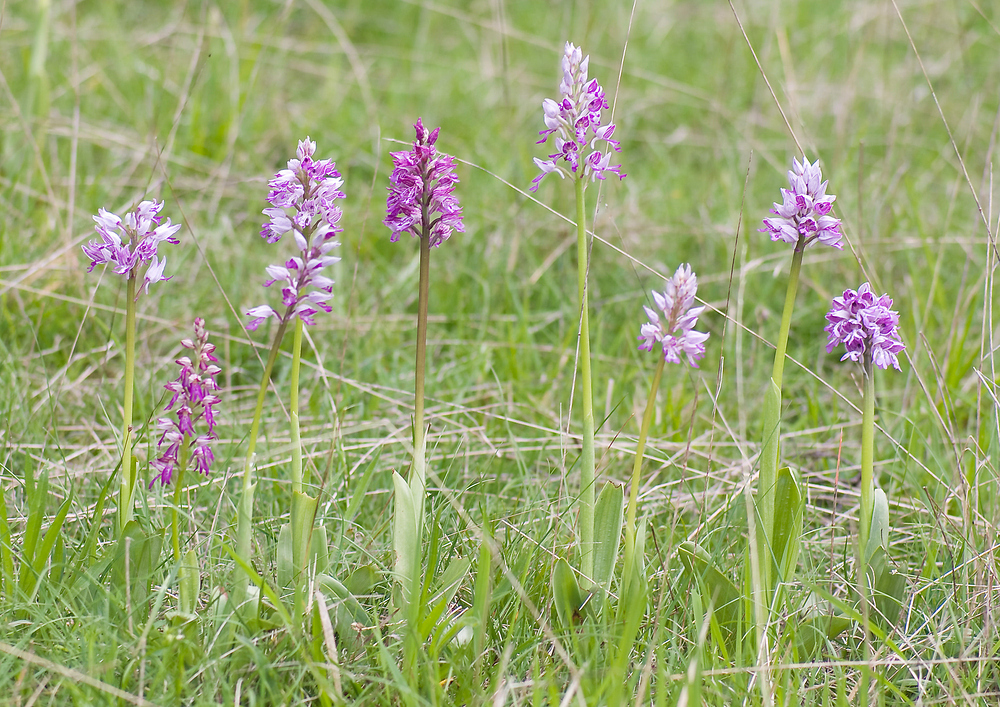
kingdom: Plantae
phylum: Tracheophyta
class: Liliopsida
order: Asparagales
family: Orchidaceae
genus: Orchis
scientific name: Orchis militaris
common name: Military orchid
